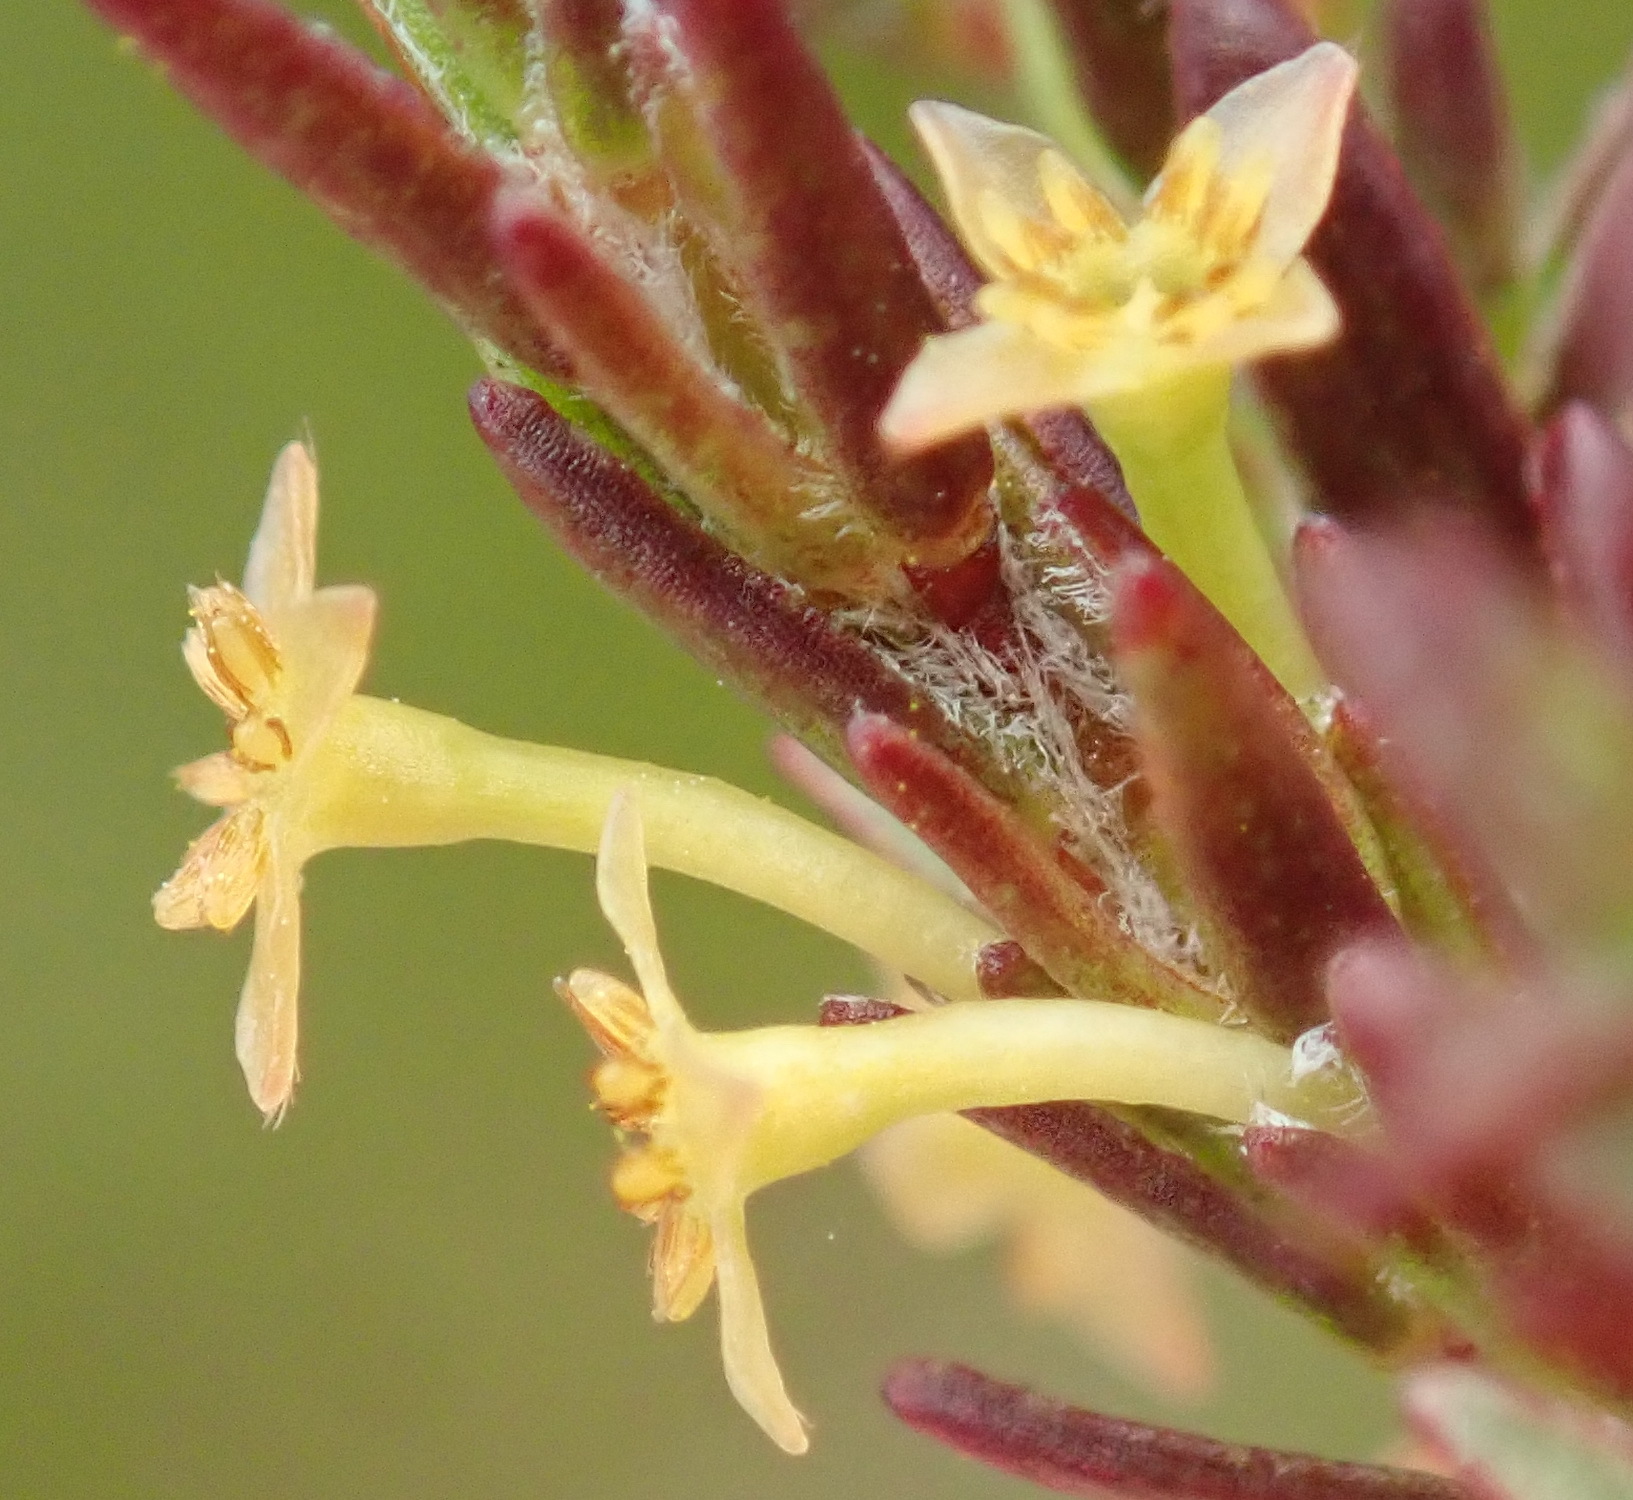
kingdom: Plantae
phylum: Tracheophyta
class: Magnoliopsida
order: Malvales
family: Thymelaeaceae
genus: Struthiola
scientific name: Struthiola parviflora
